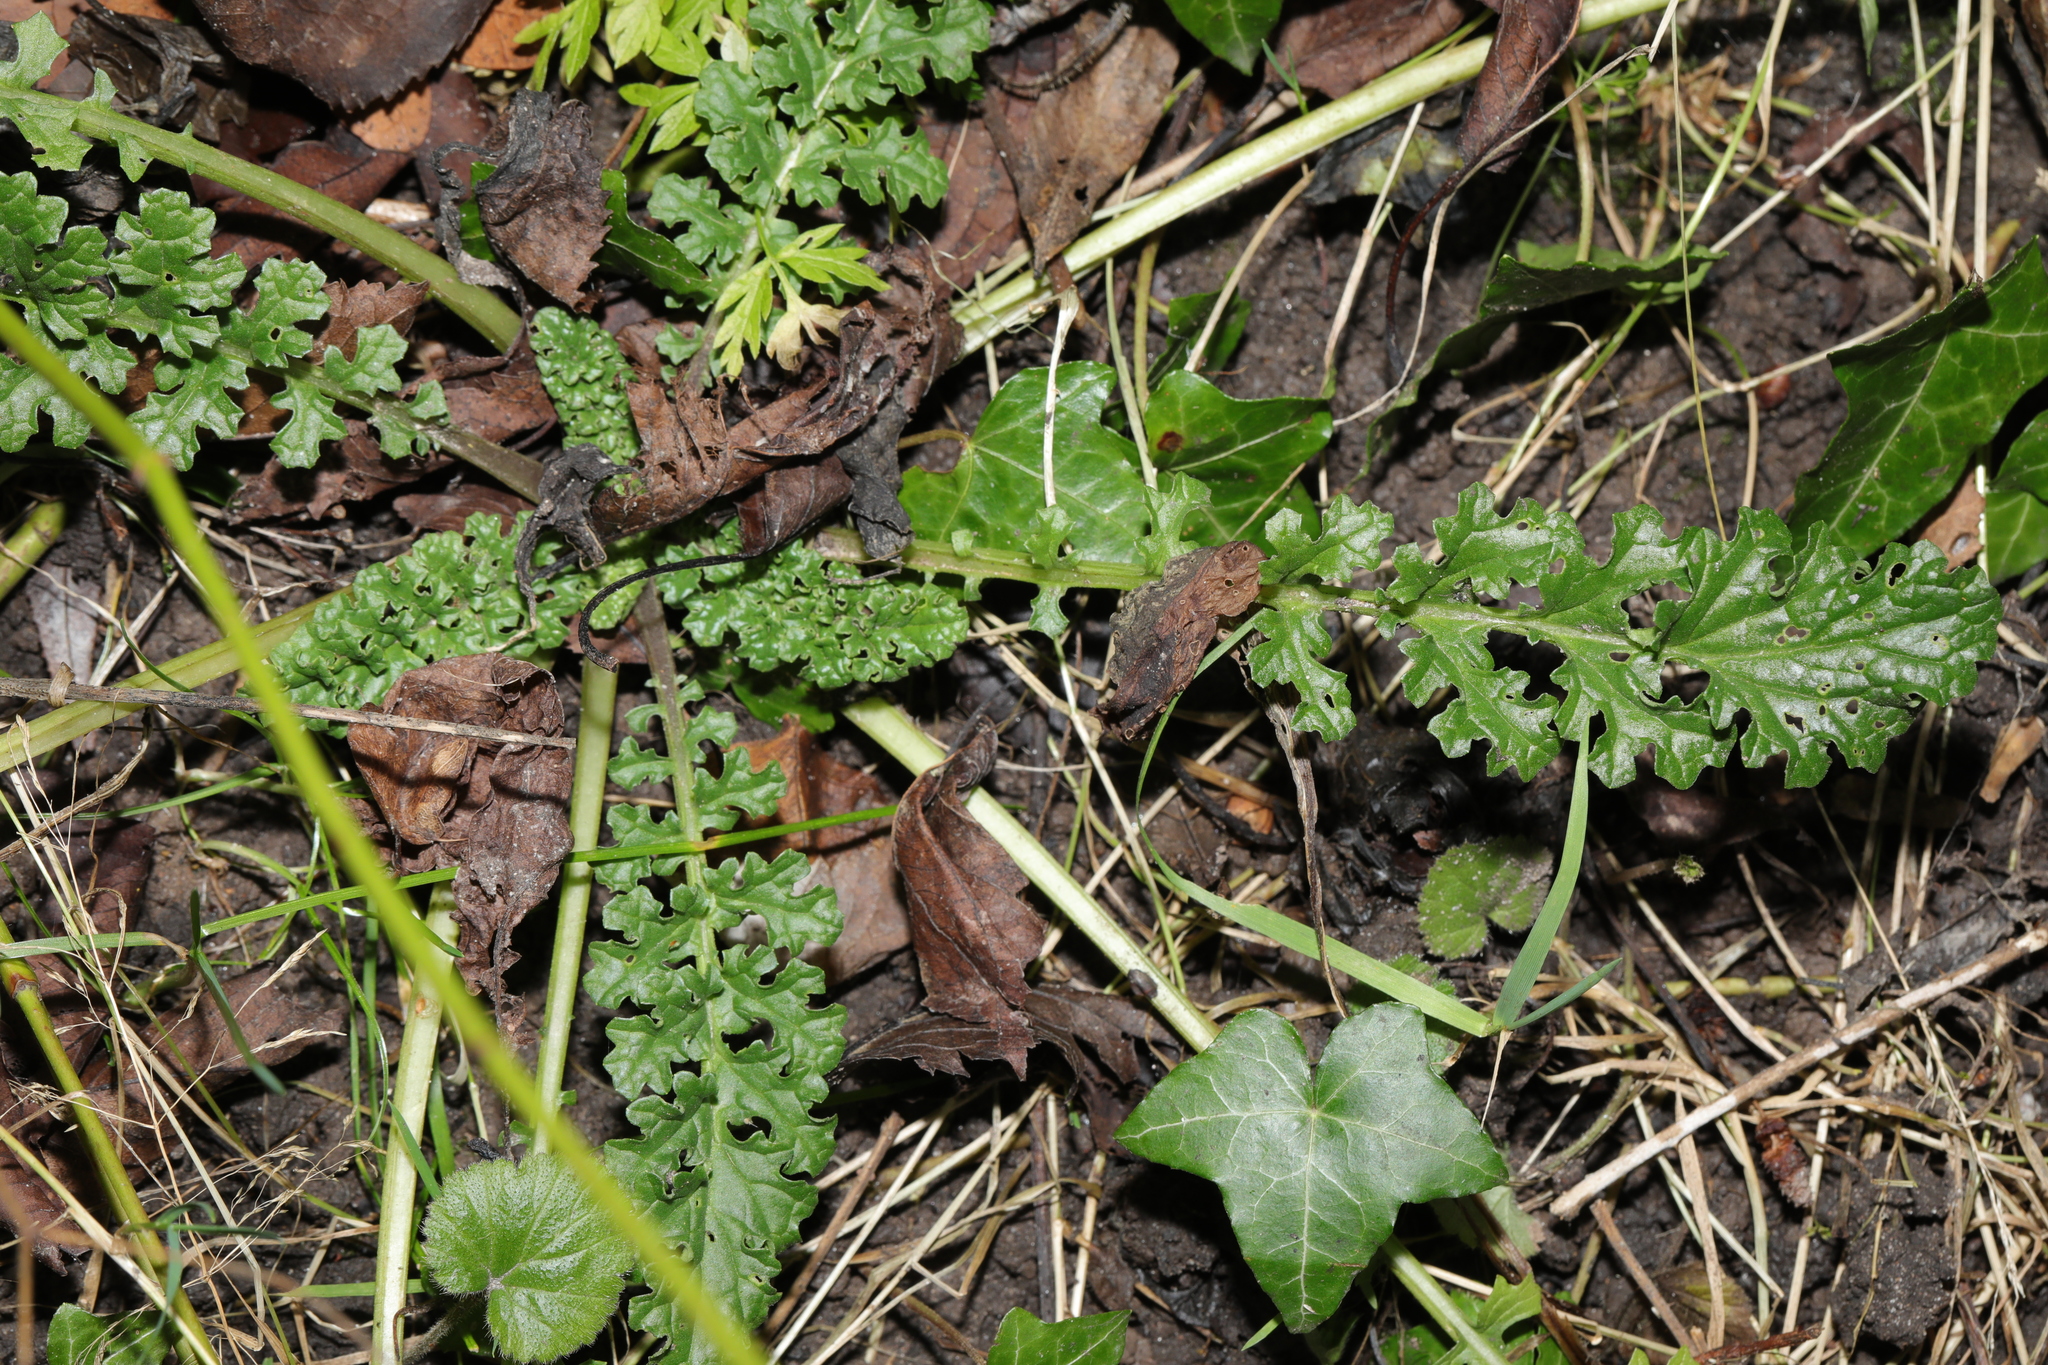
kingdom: Plantae
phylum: Tracheophyta
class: Magnoliopsida
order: Asterales
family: Asteraceae
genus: Jacobaea
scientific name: Jacobaea vulgaris
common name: Stinking willie
